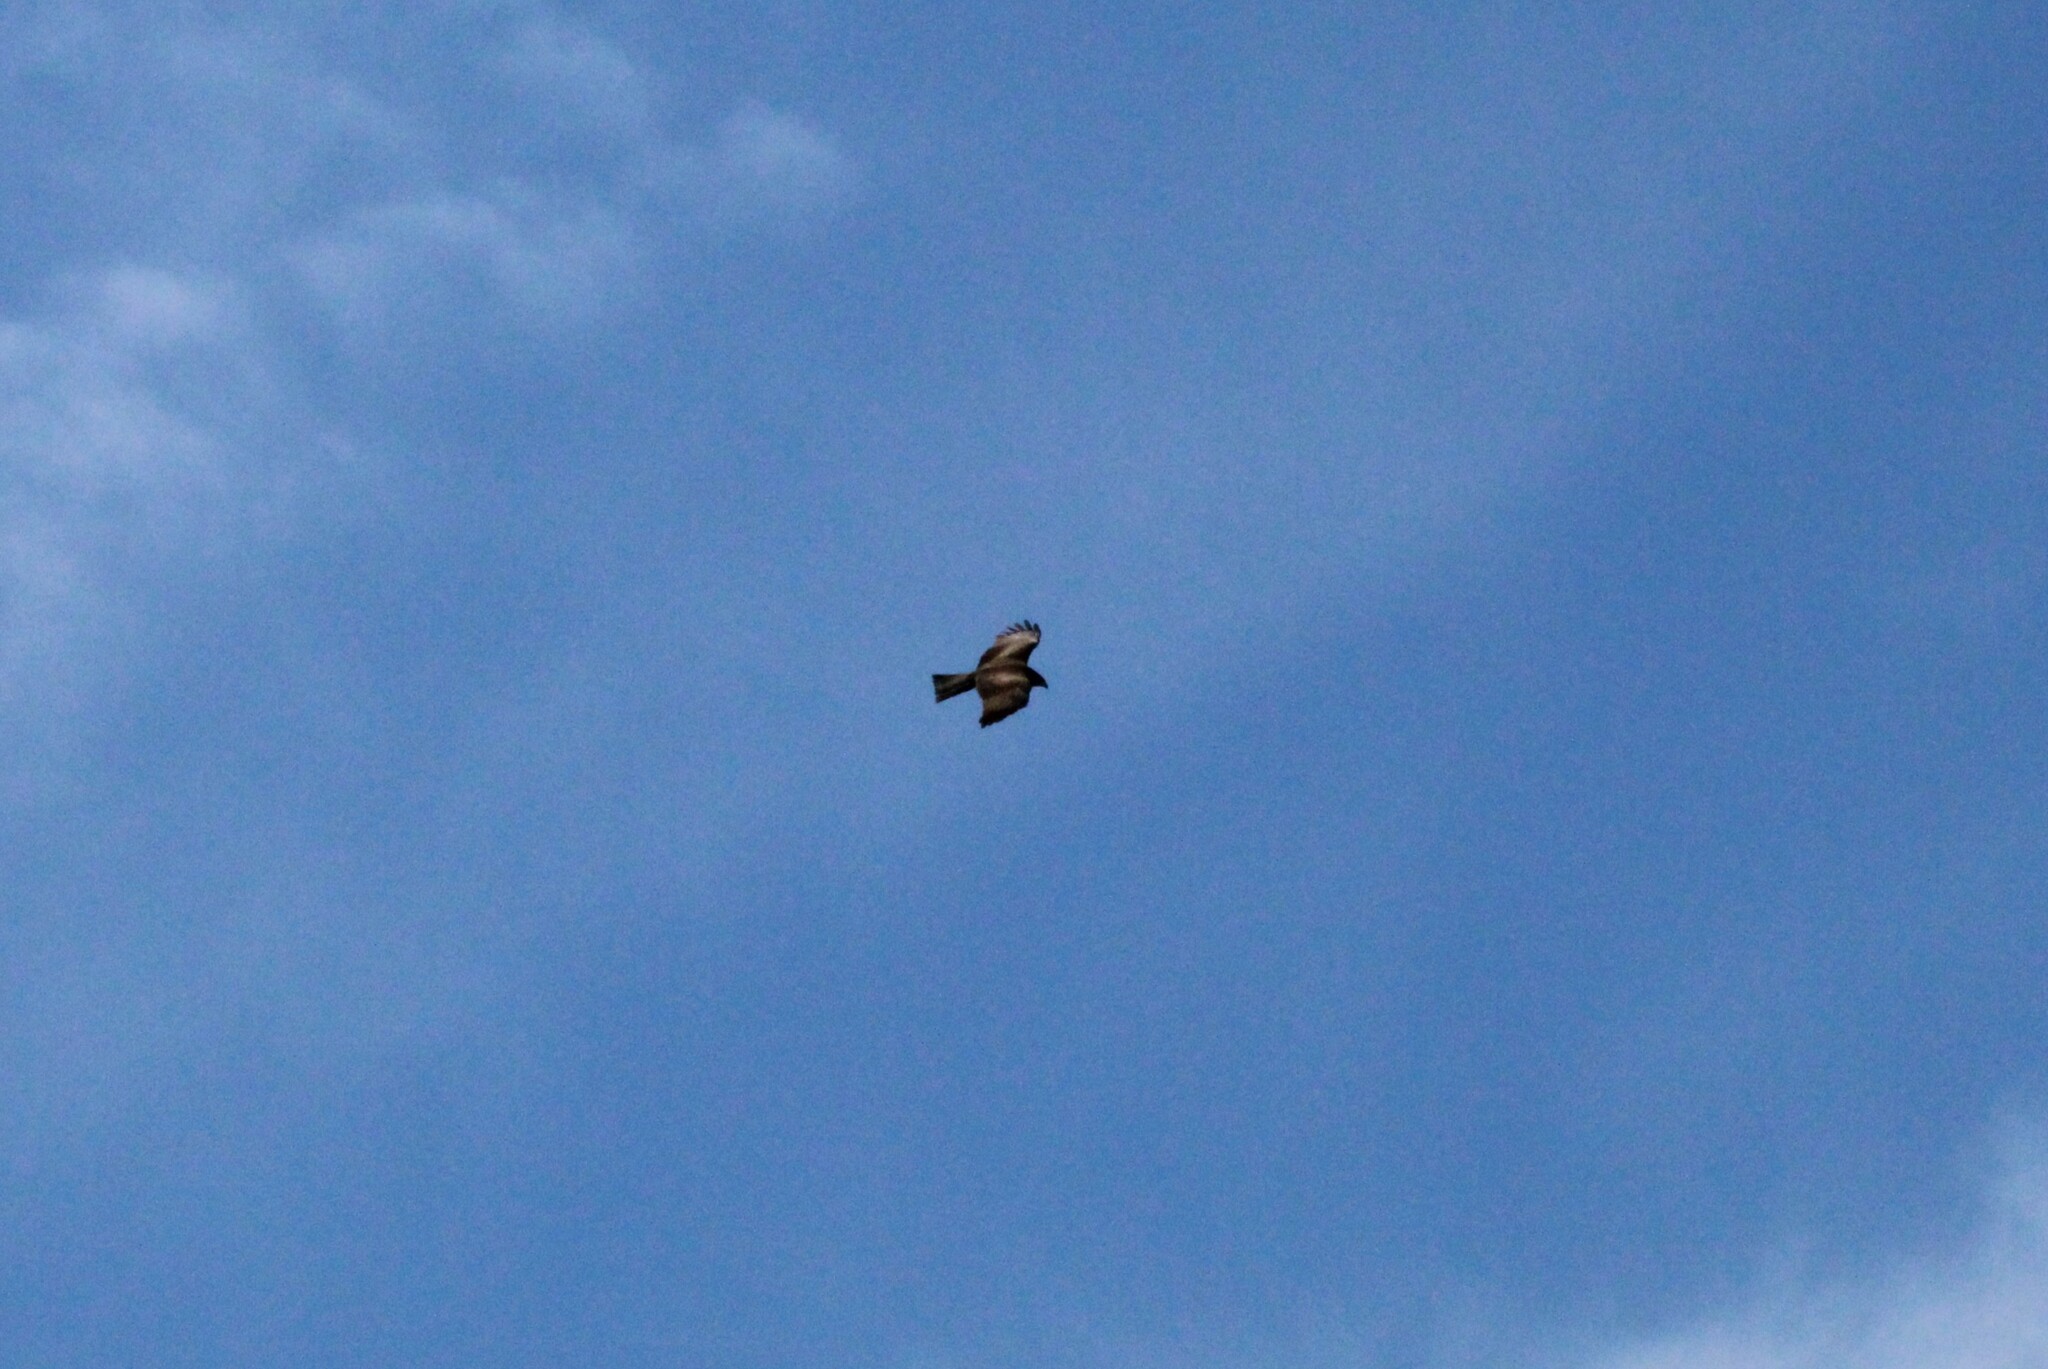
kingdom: Animalia
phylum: Chordata
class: Aves
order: Accipitriformes
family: Accipitridae
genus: Milvus
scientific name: Milvus migrans
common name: Black kite
